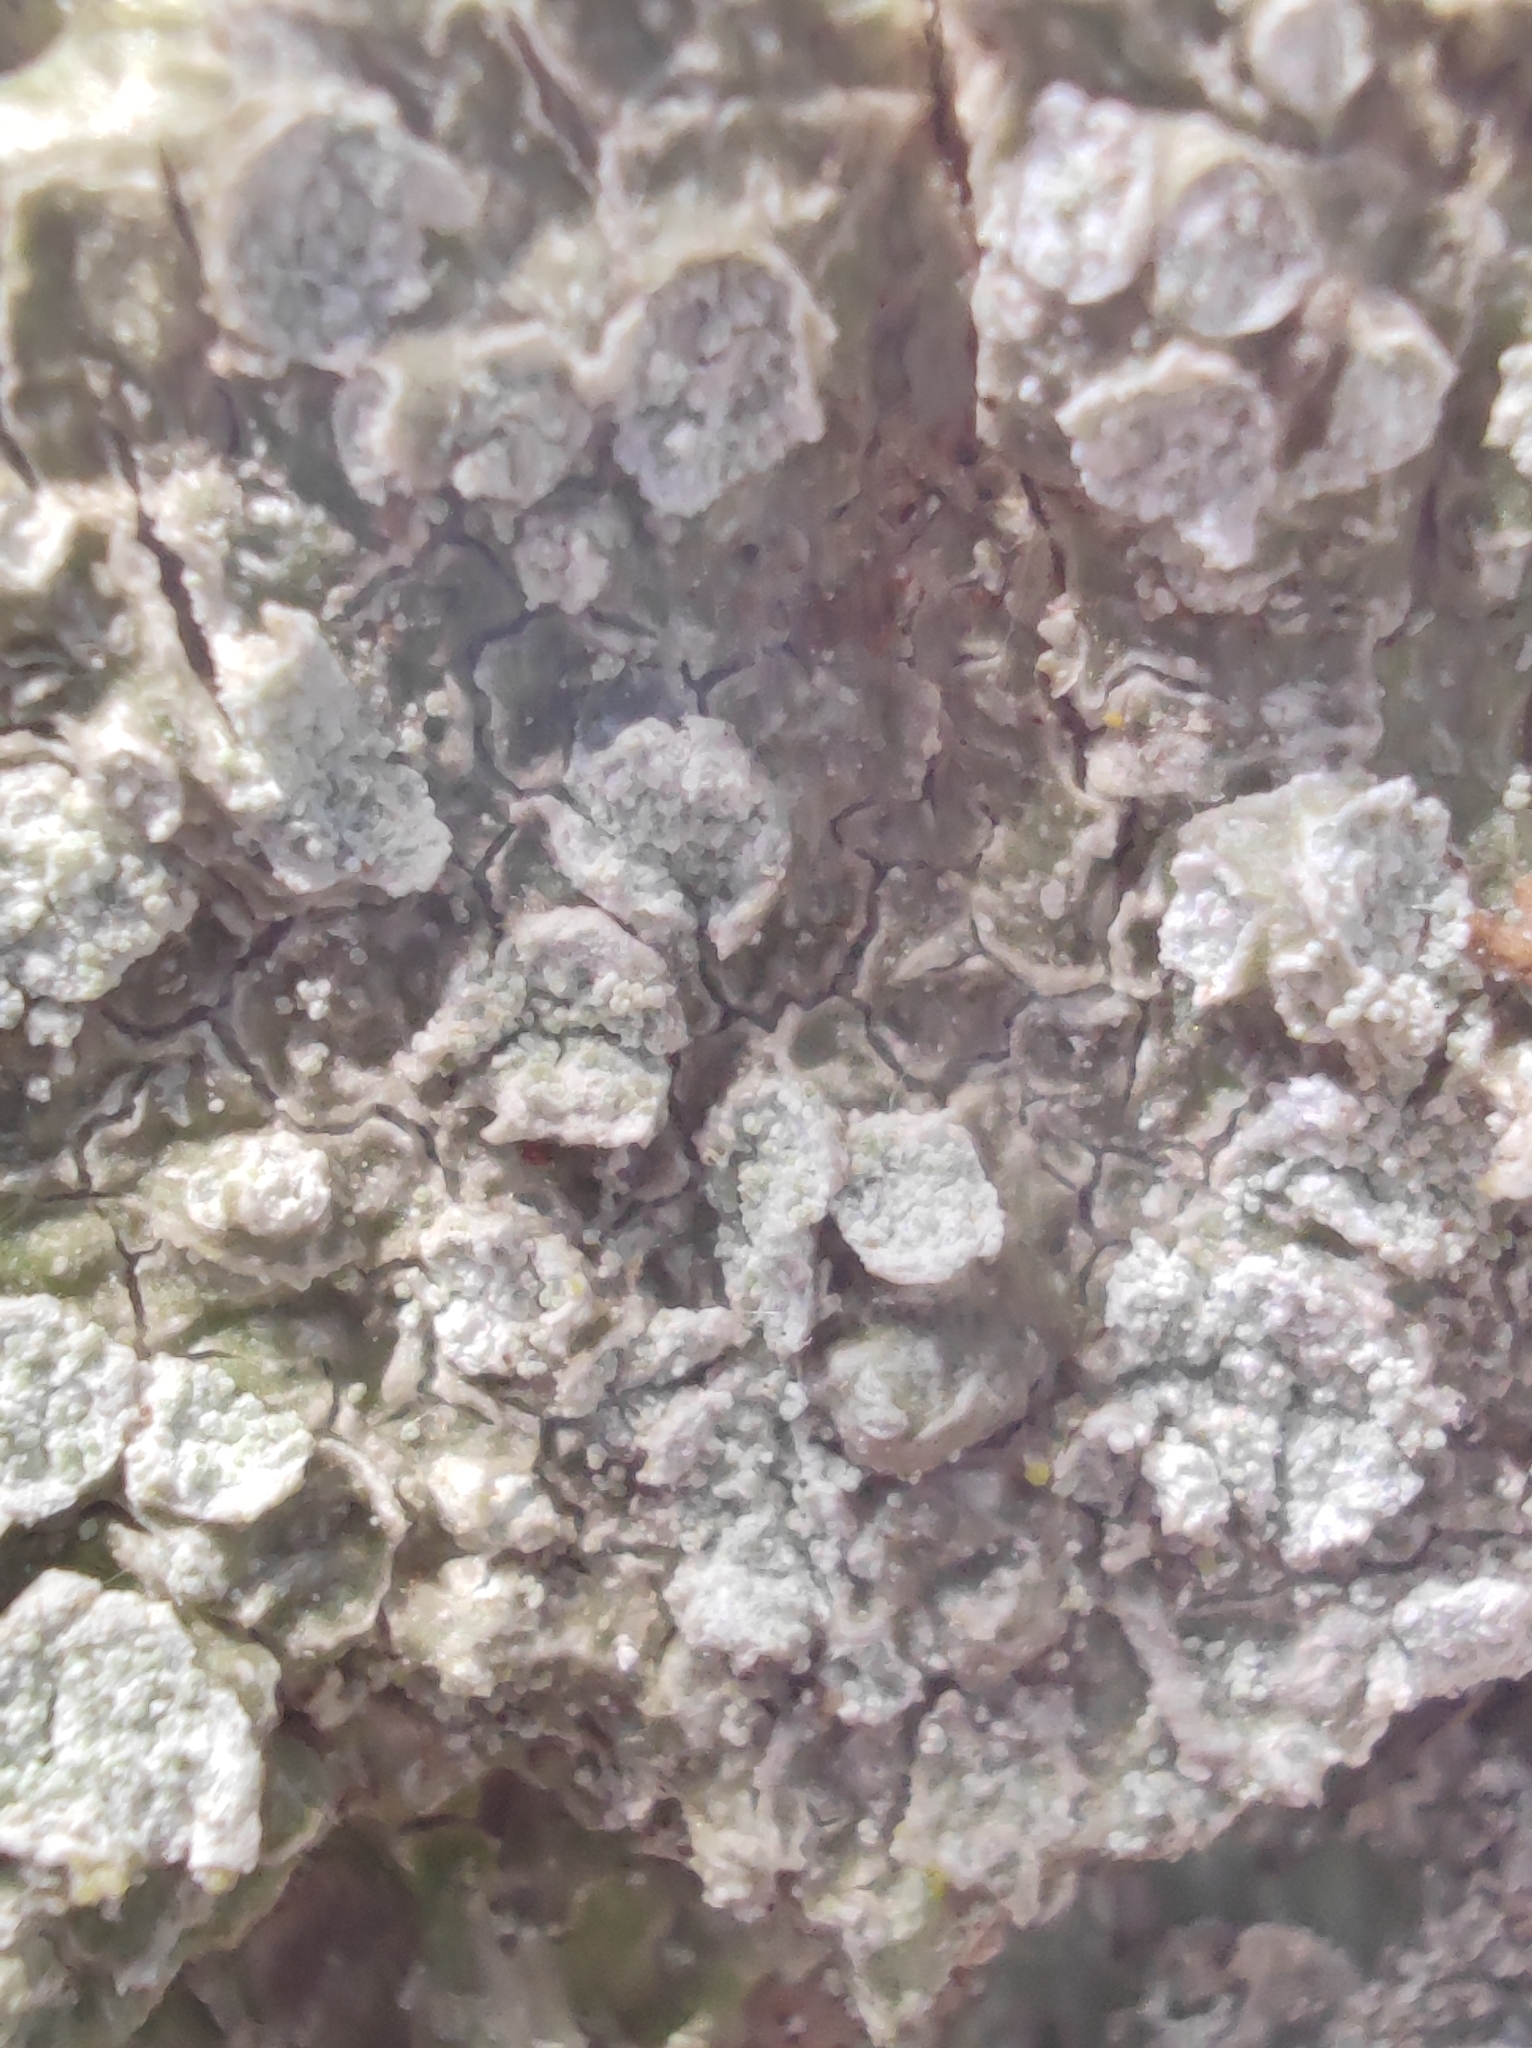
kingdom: Fungi
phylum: Ascomycota
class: Lecanoromycetes
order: Pertusariales
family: Pertusariaceae
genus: Lepra
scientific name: Lepra albescens
